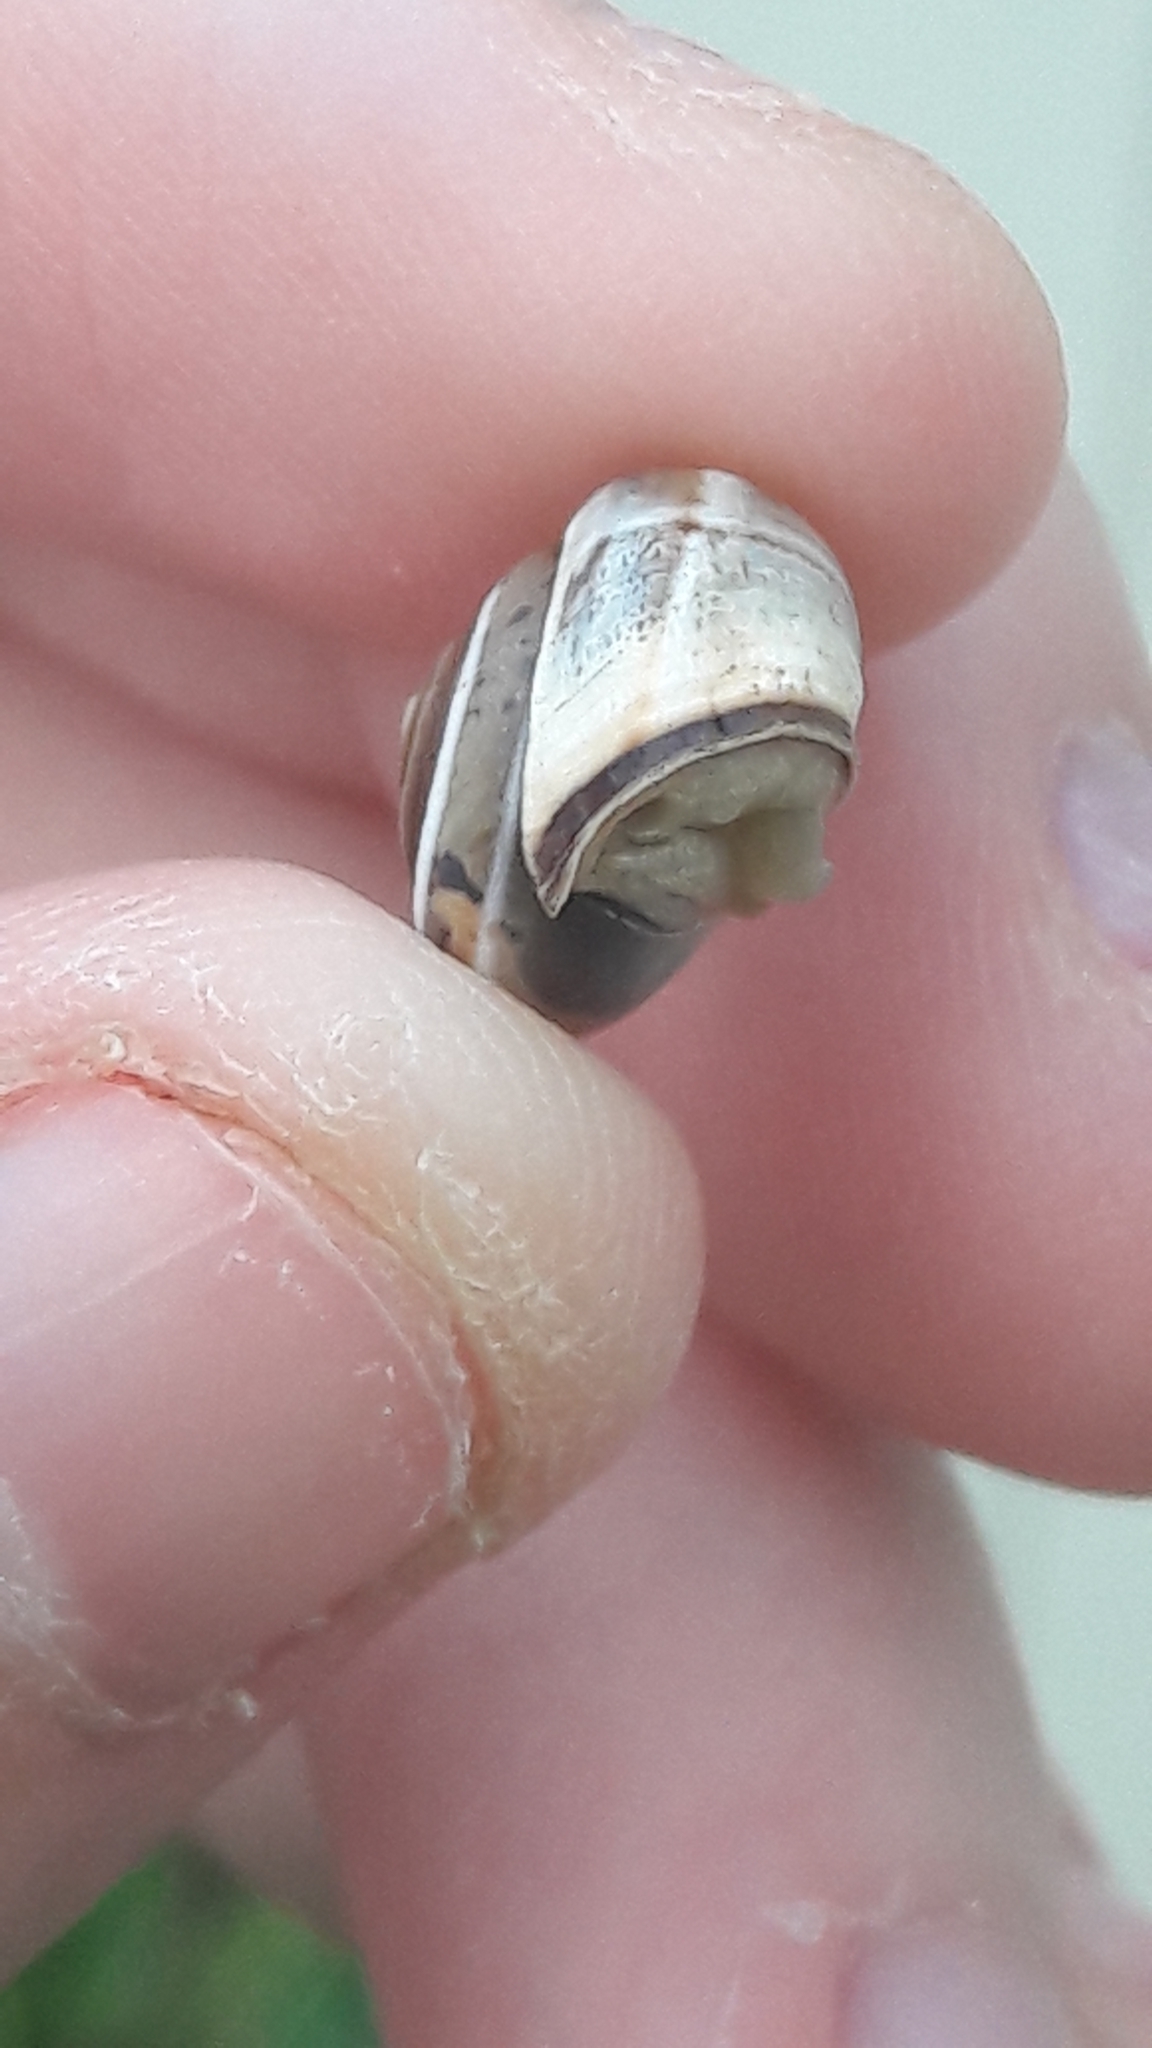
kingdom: Animalia
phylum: Mollusca
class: Gastropoda
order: Stylommatophora
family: Hygromiidae
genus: Monacha
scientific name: Monacha syriaca
